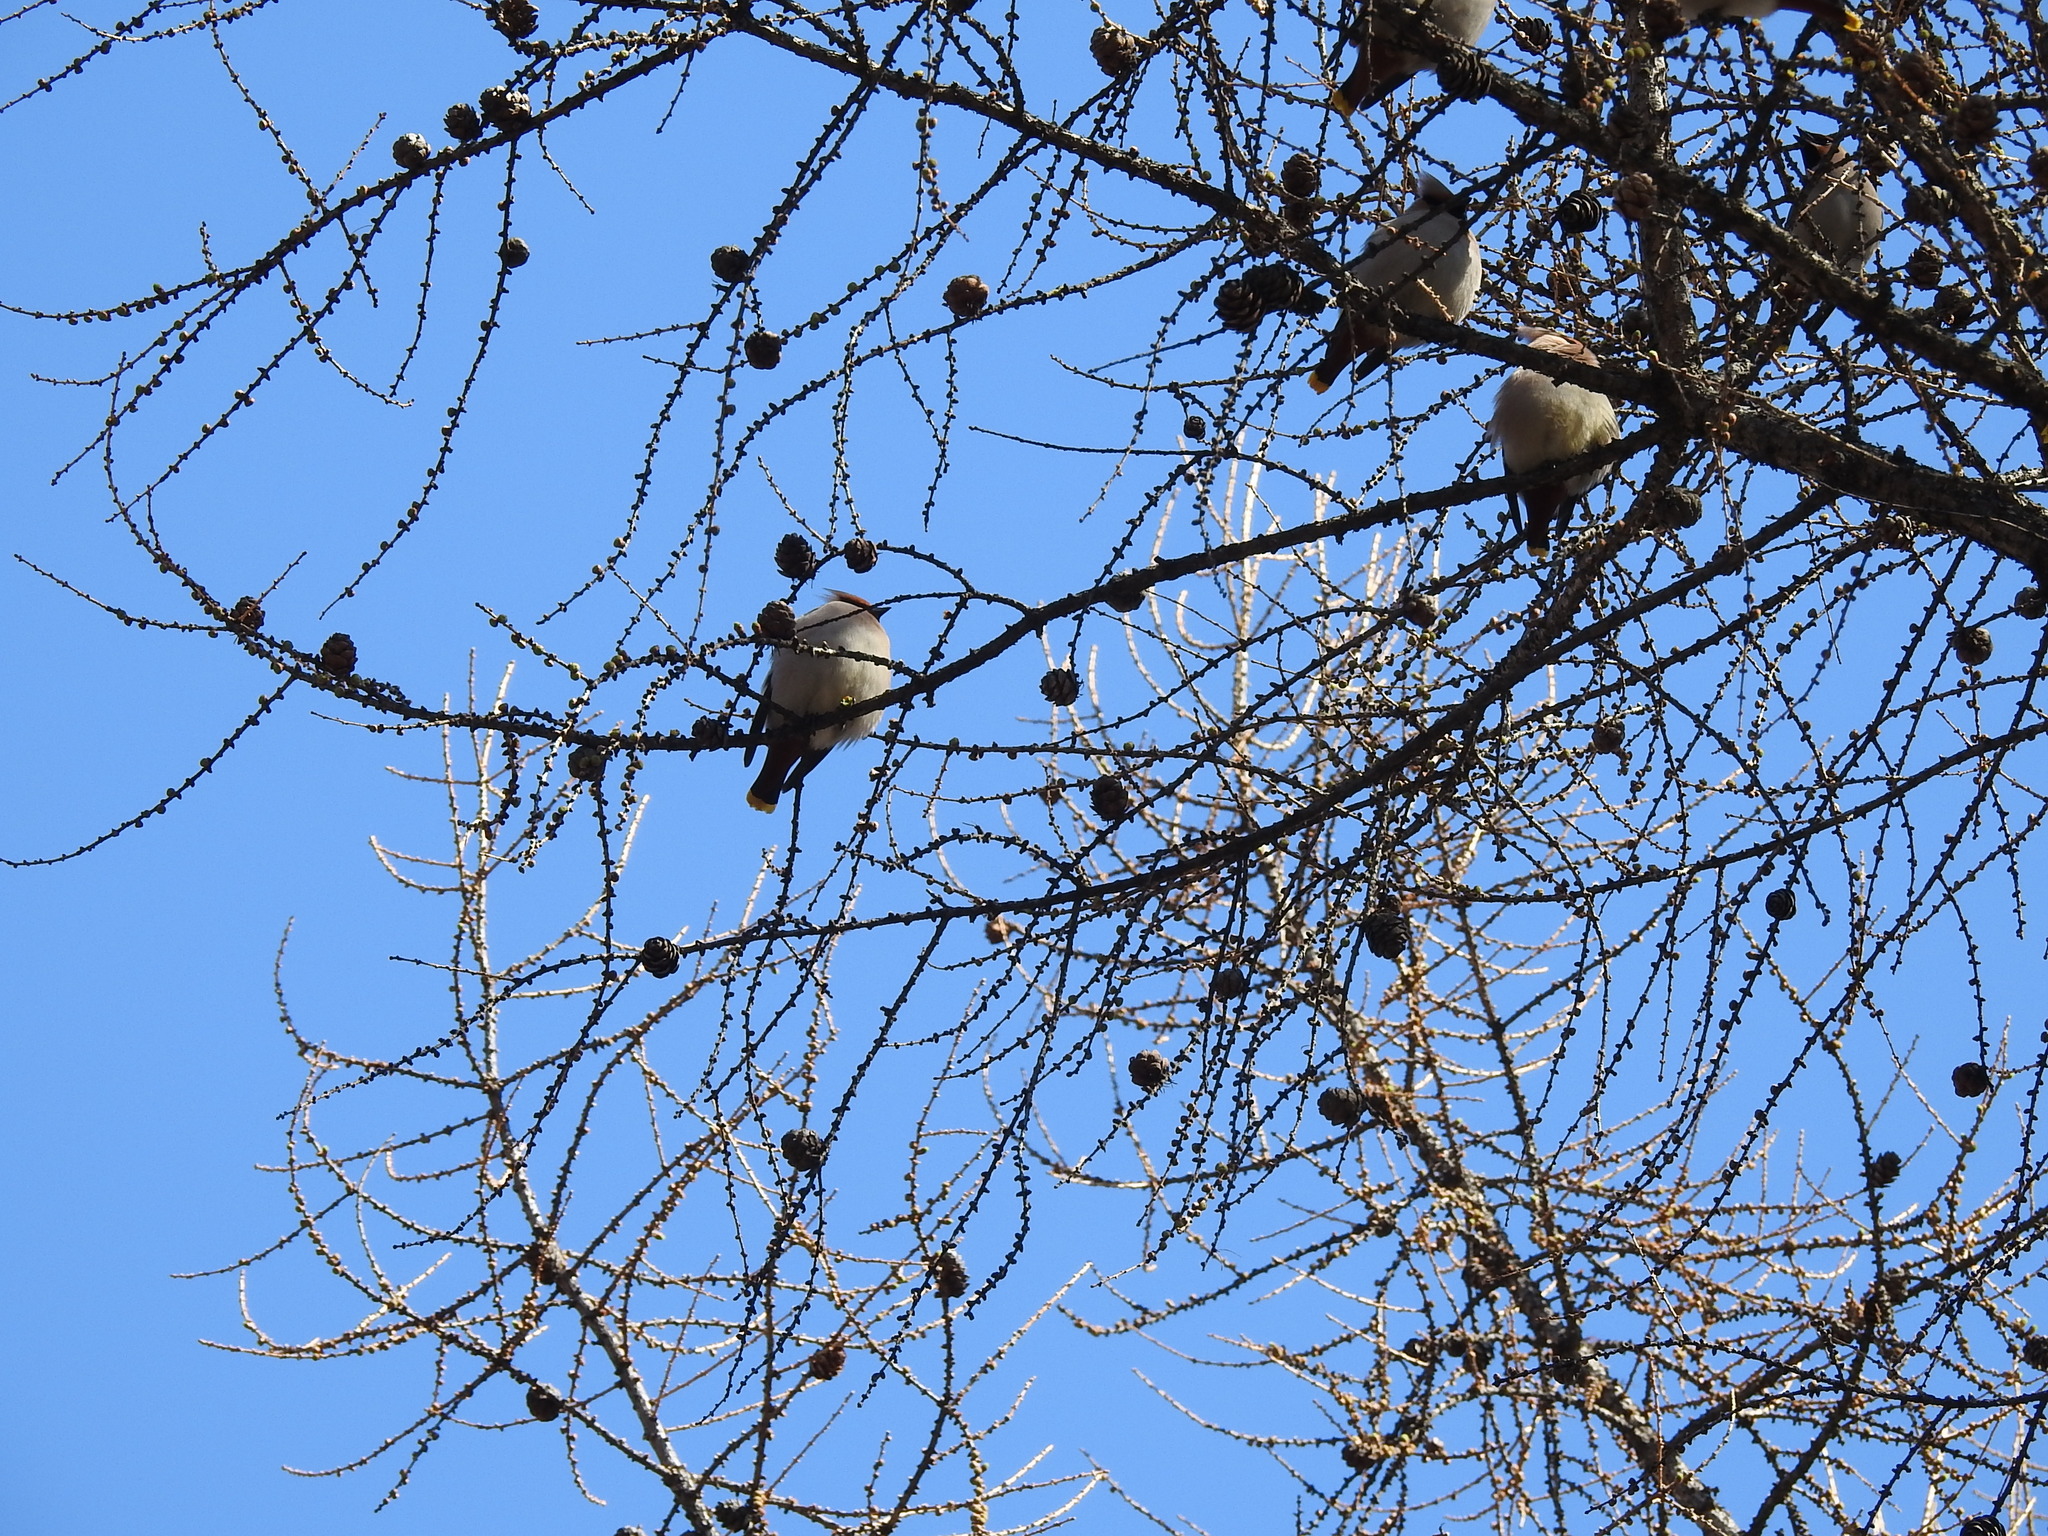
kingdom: Animalia
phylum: Chordata
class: Aves
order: Passeriformes
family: Bombycillidae
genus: Bombycilla
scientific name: Bombycilla garrulus
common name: Bohemian waxwing
